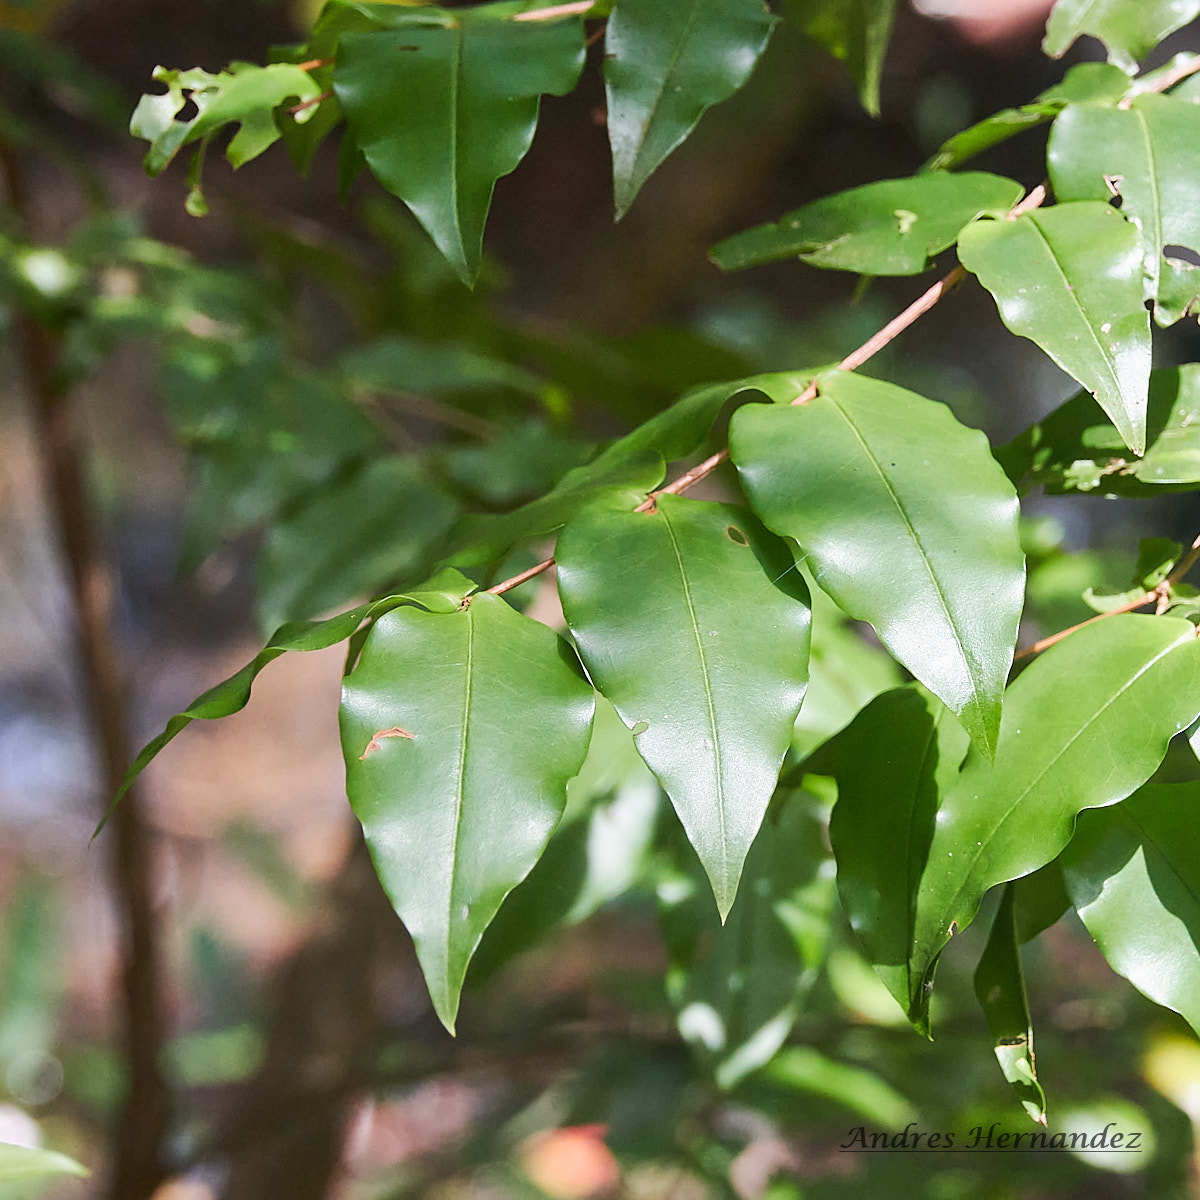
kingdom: Plantae
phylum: Tracheophyta
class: Magnoliopsida
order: Myrtales
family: Melastomataceae
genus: Mouriri
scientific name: Mouriri myrtilloides
